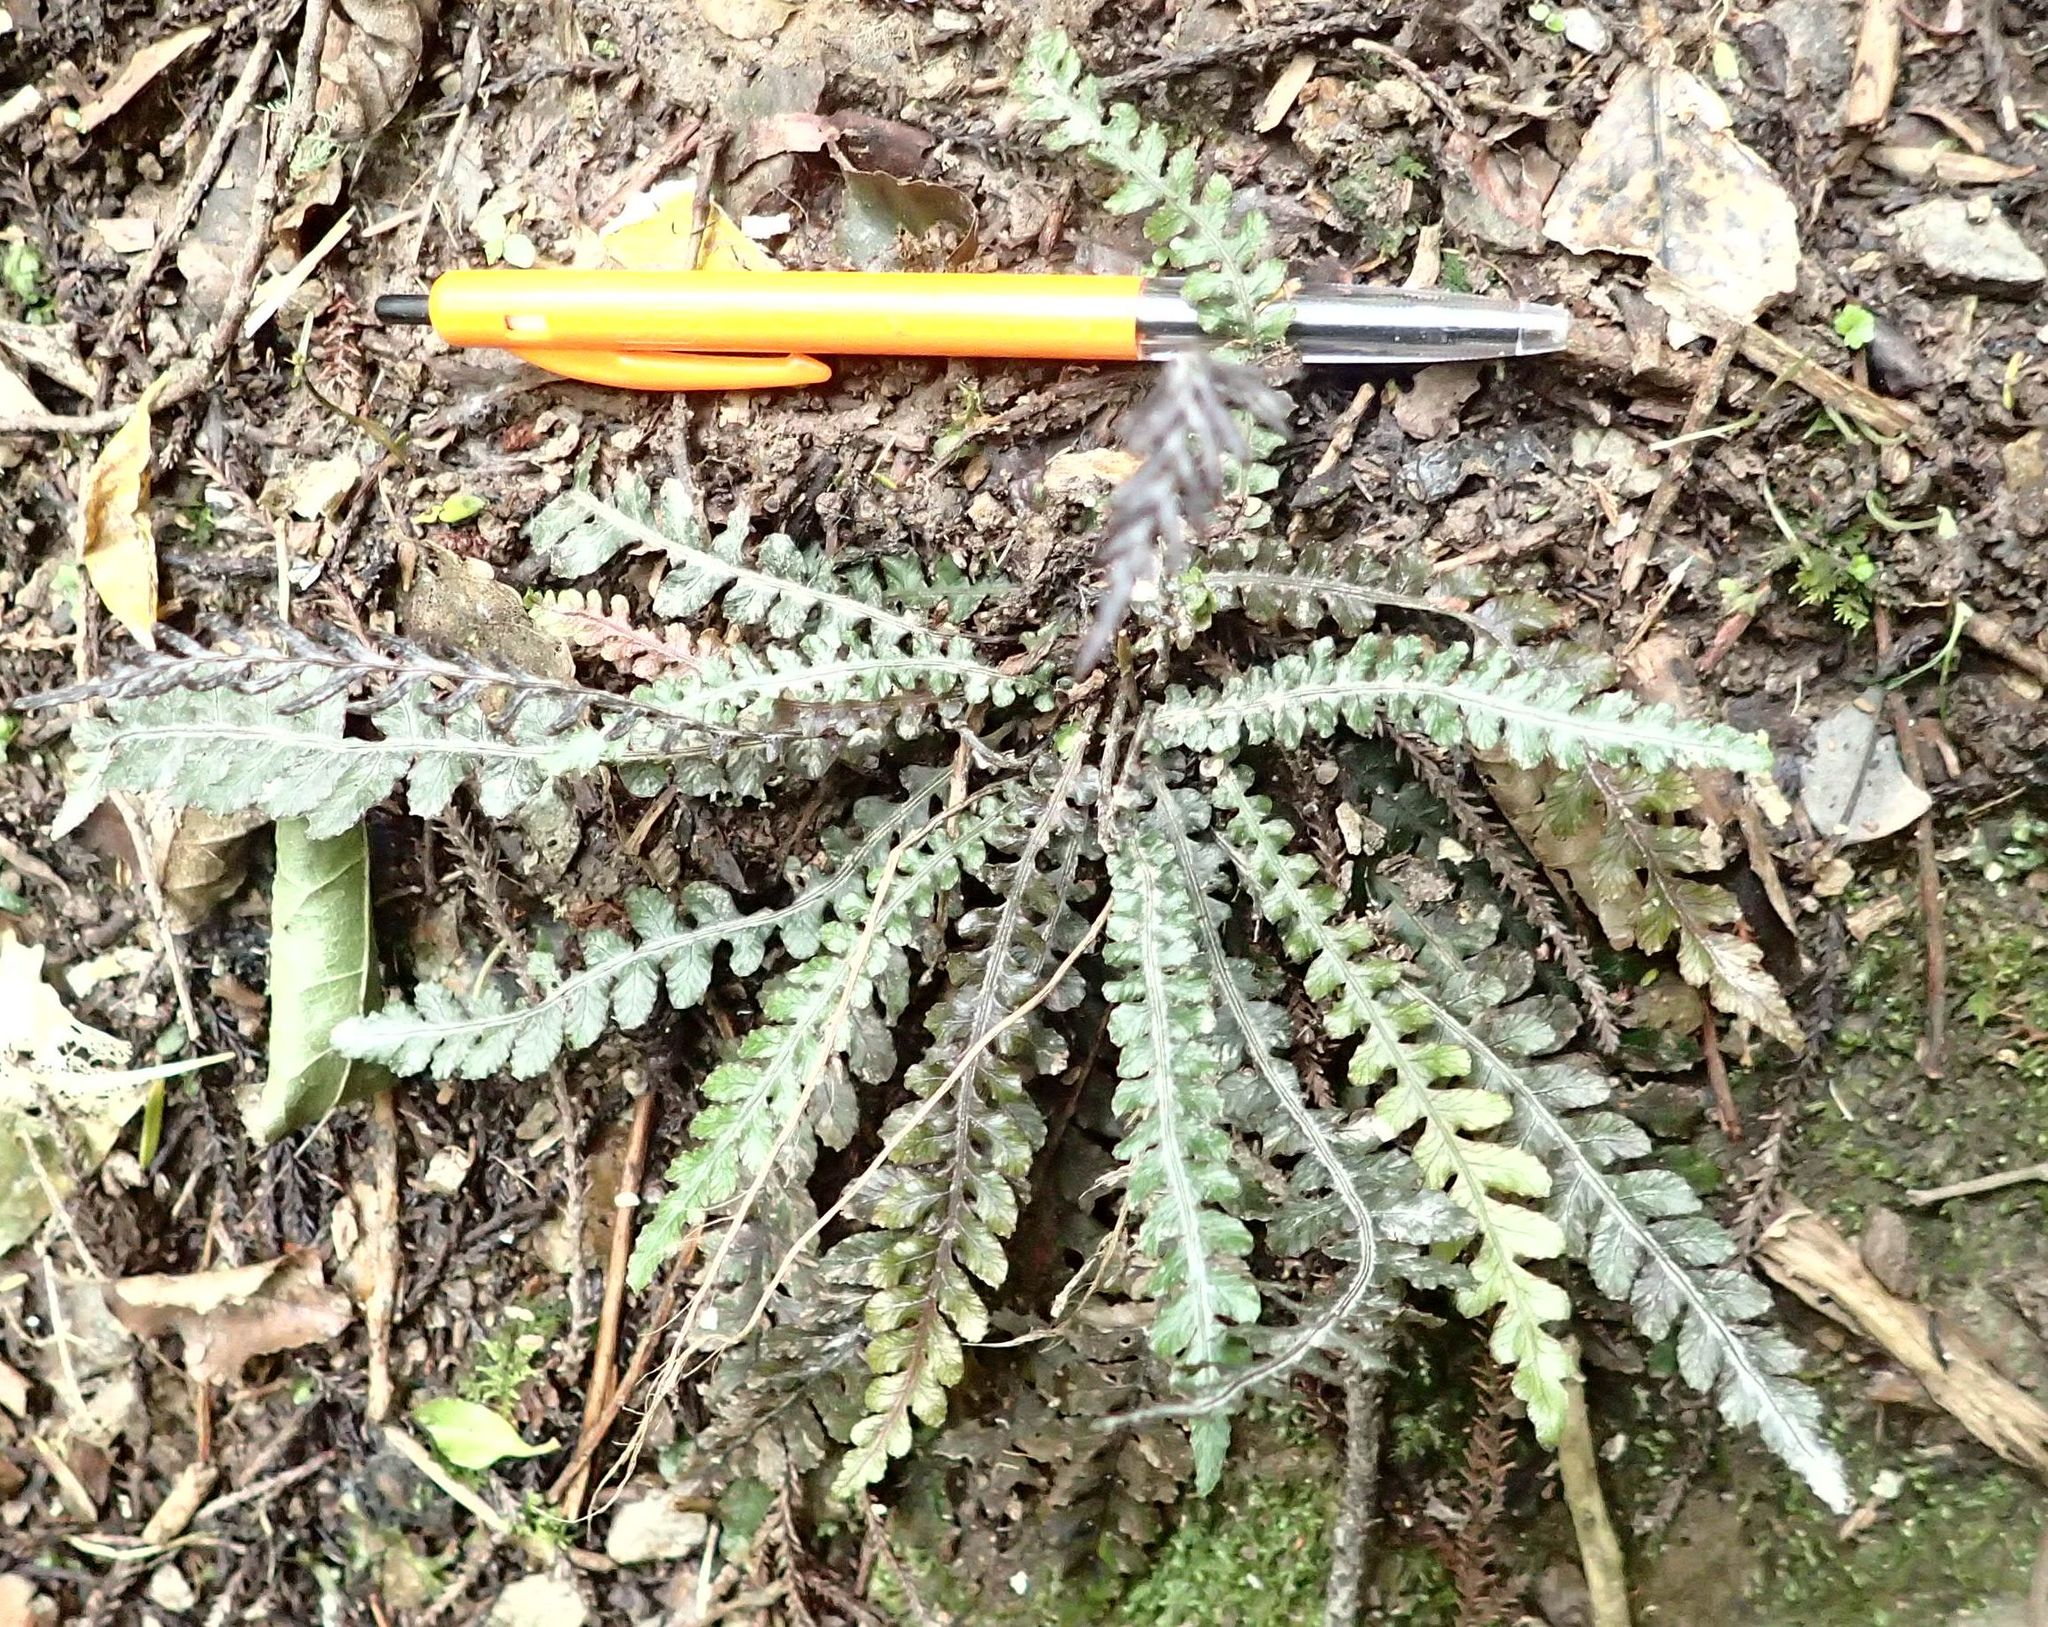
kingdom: Plantae
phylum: Tracheophyta
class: Polypodiopsida
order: Polypodiales
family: Blechnaceae
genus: Austroblechnum
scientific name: Austroblechnum membranaceum
